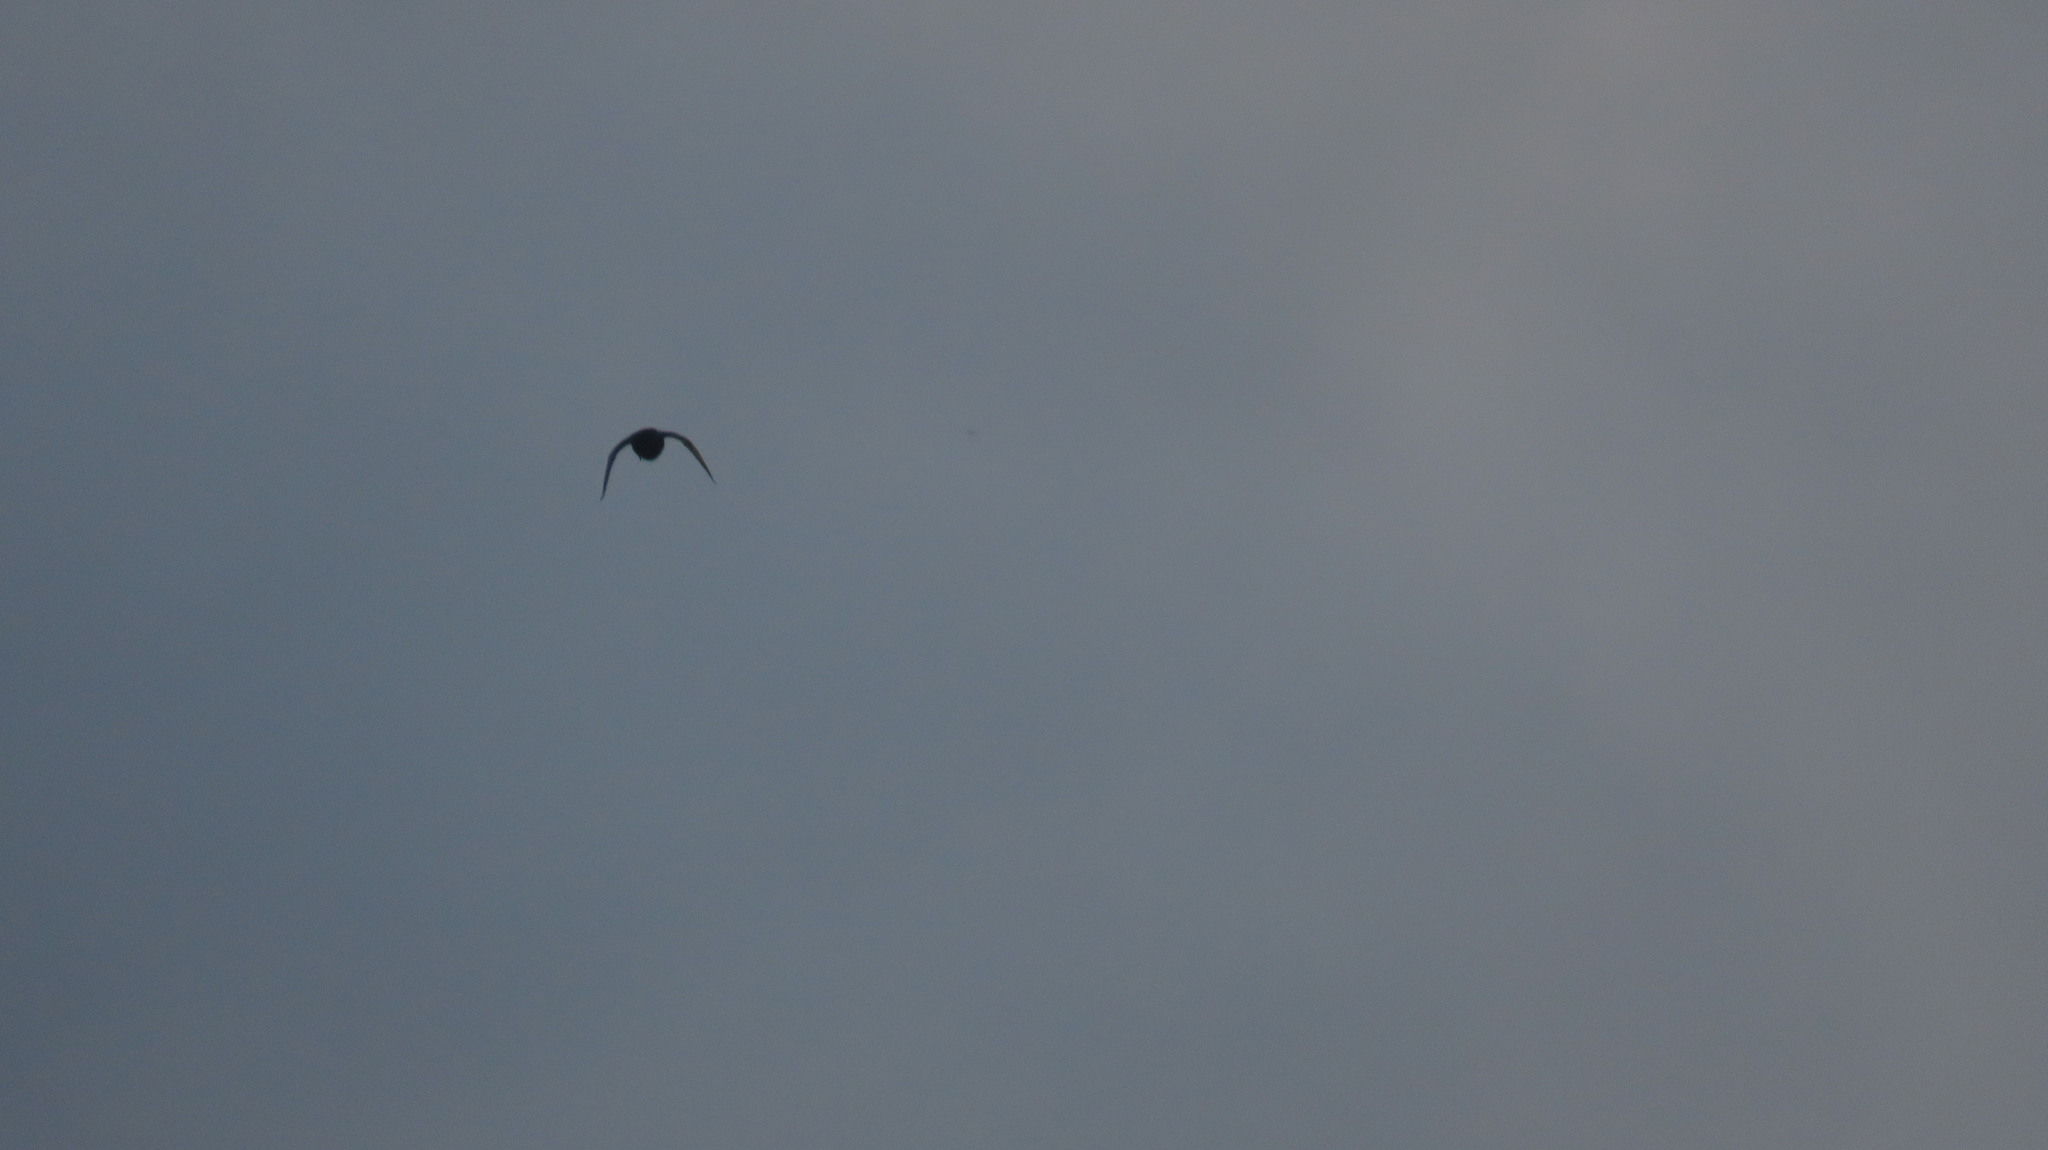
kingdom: Animalia
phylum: Chordata
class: Aves
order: Columbiformes
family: Columbidae
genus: Columba
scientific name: Columba livia
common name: Rock pigeon
